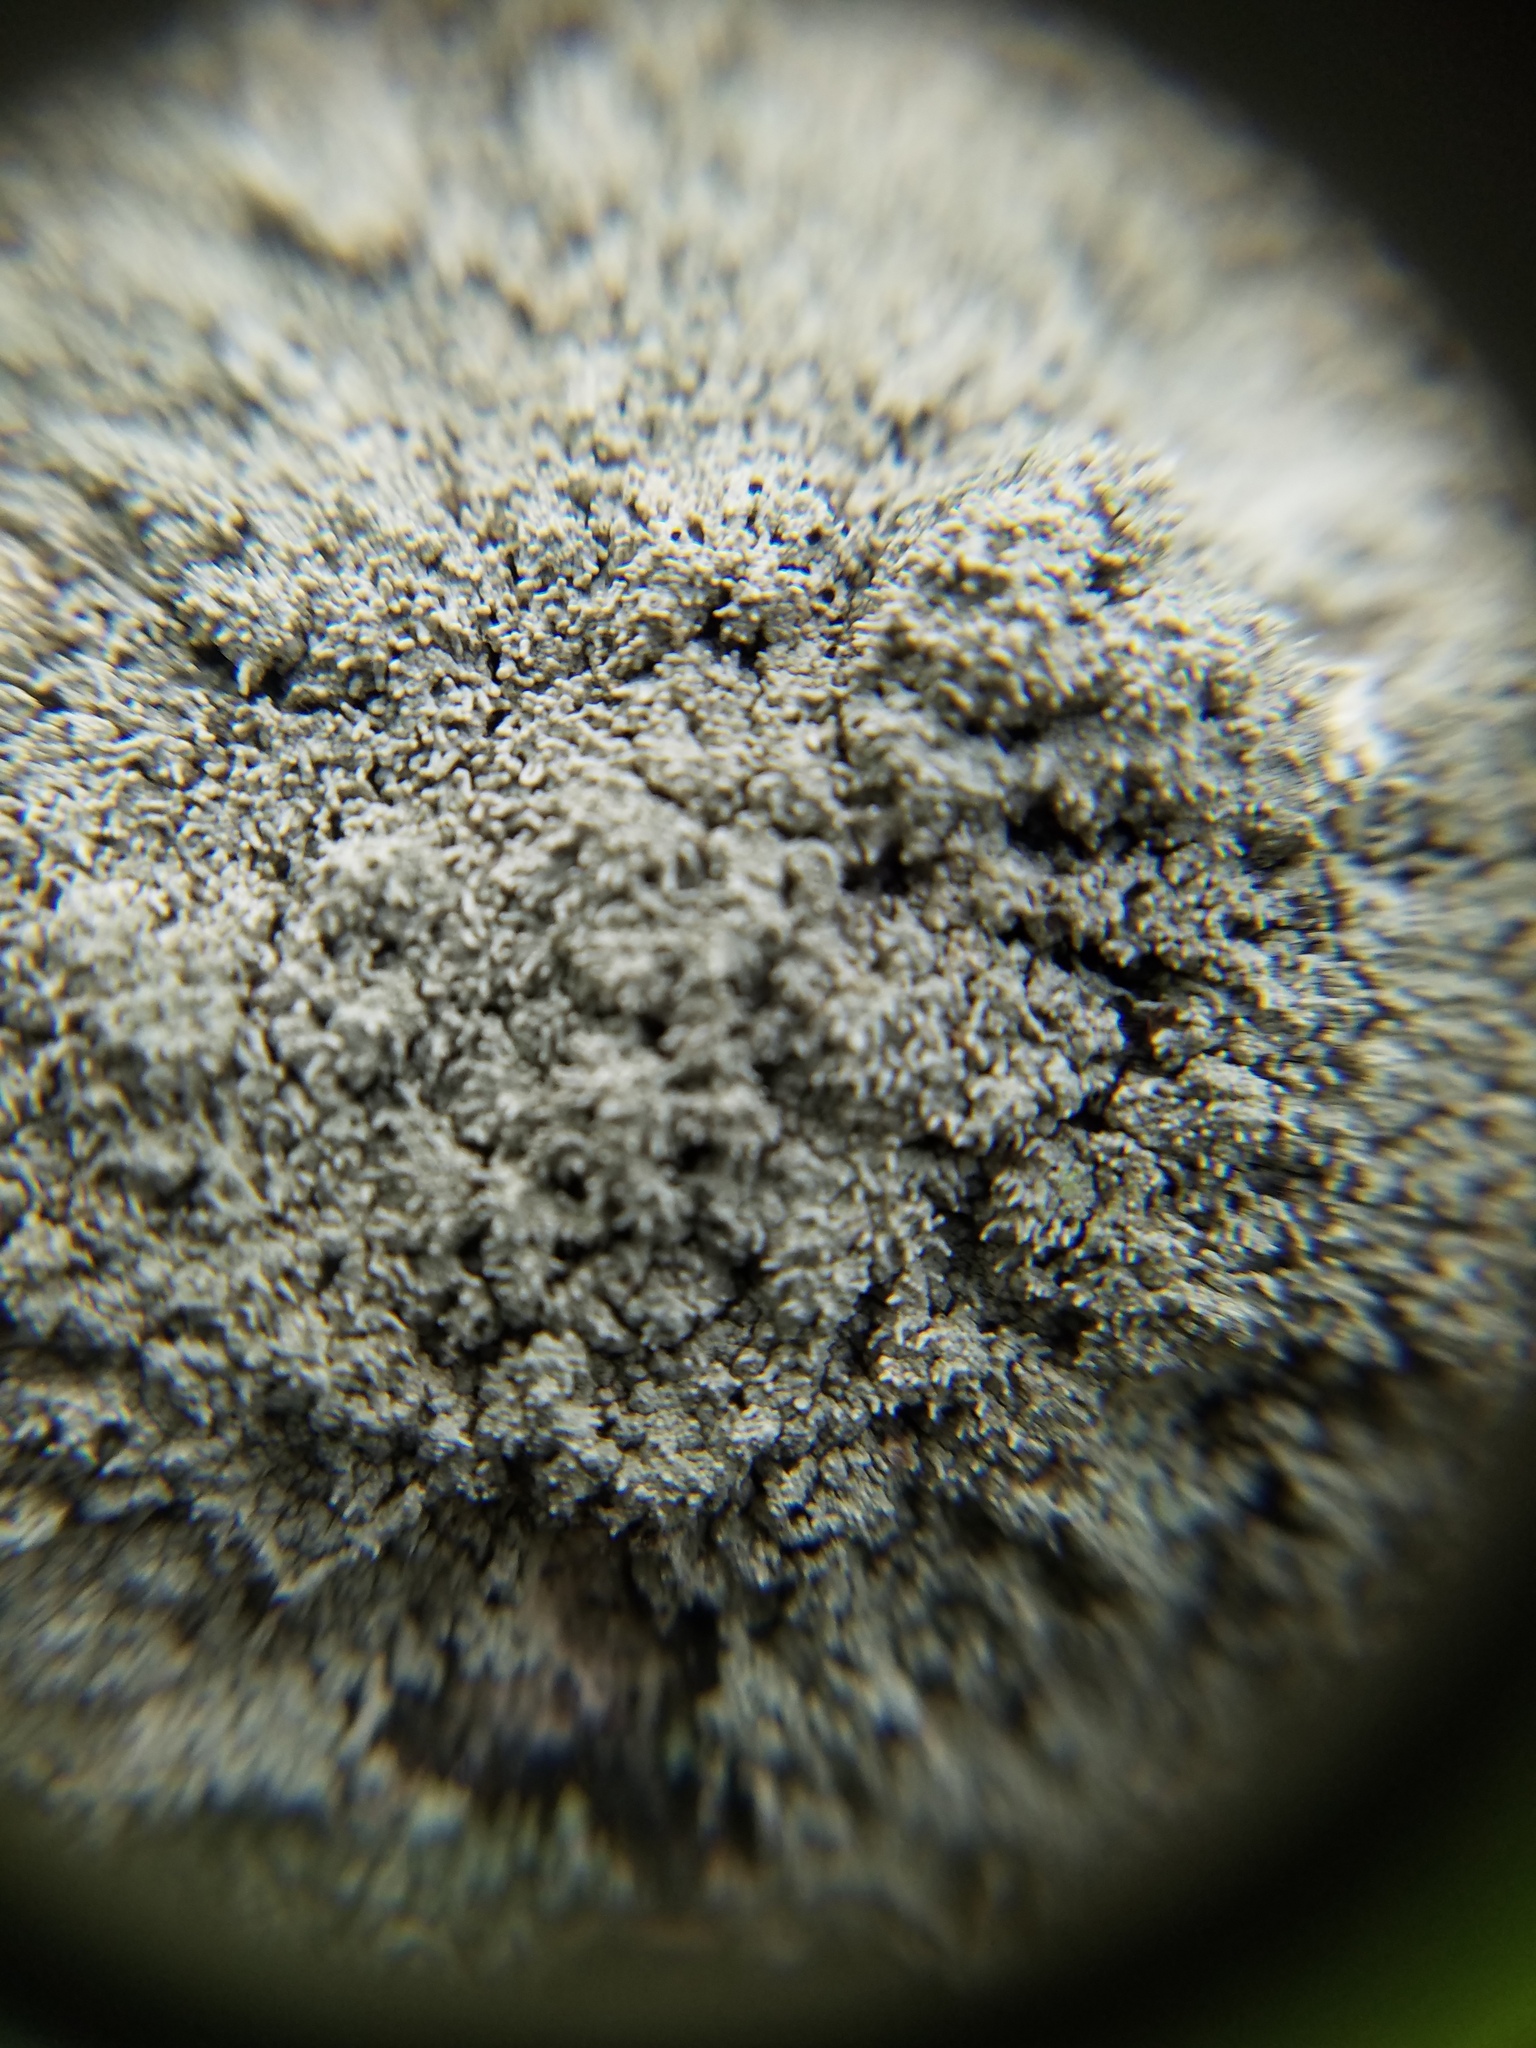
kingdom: Fungi
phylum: Ascomycota
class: Lecanoromycetes
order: Pertusariales
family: Ochrolechiaceae
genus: Ochrolechia
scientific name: Ochrolechia yasudae
